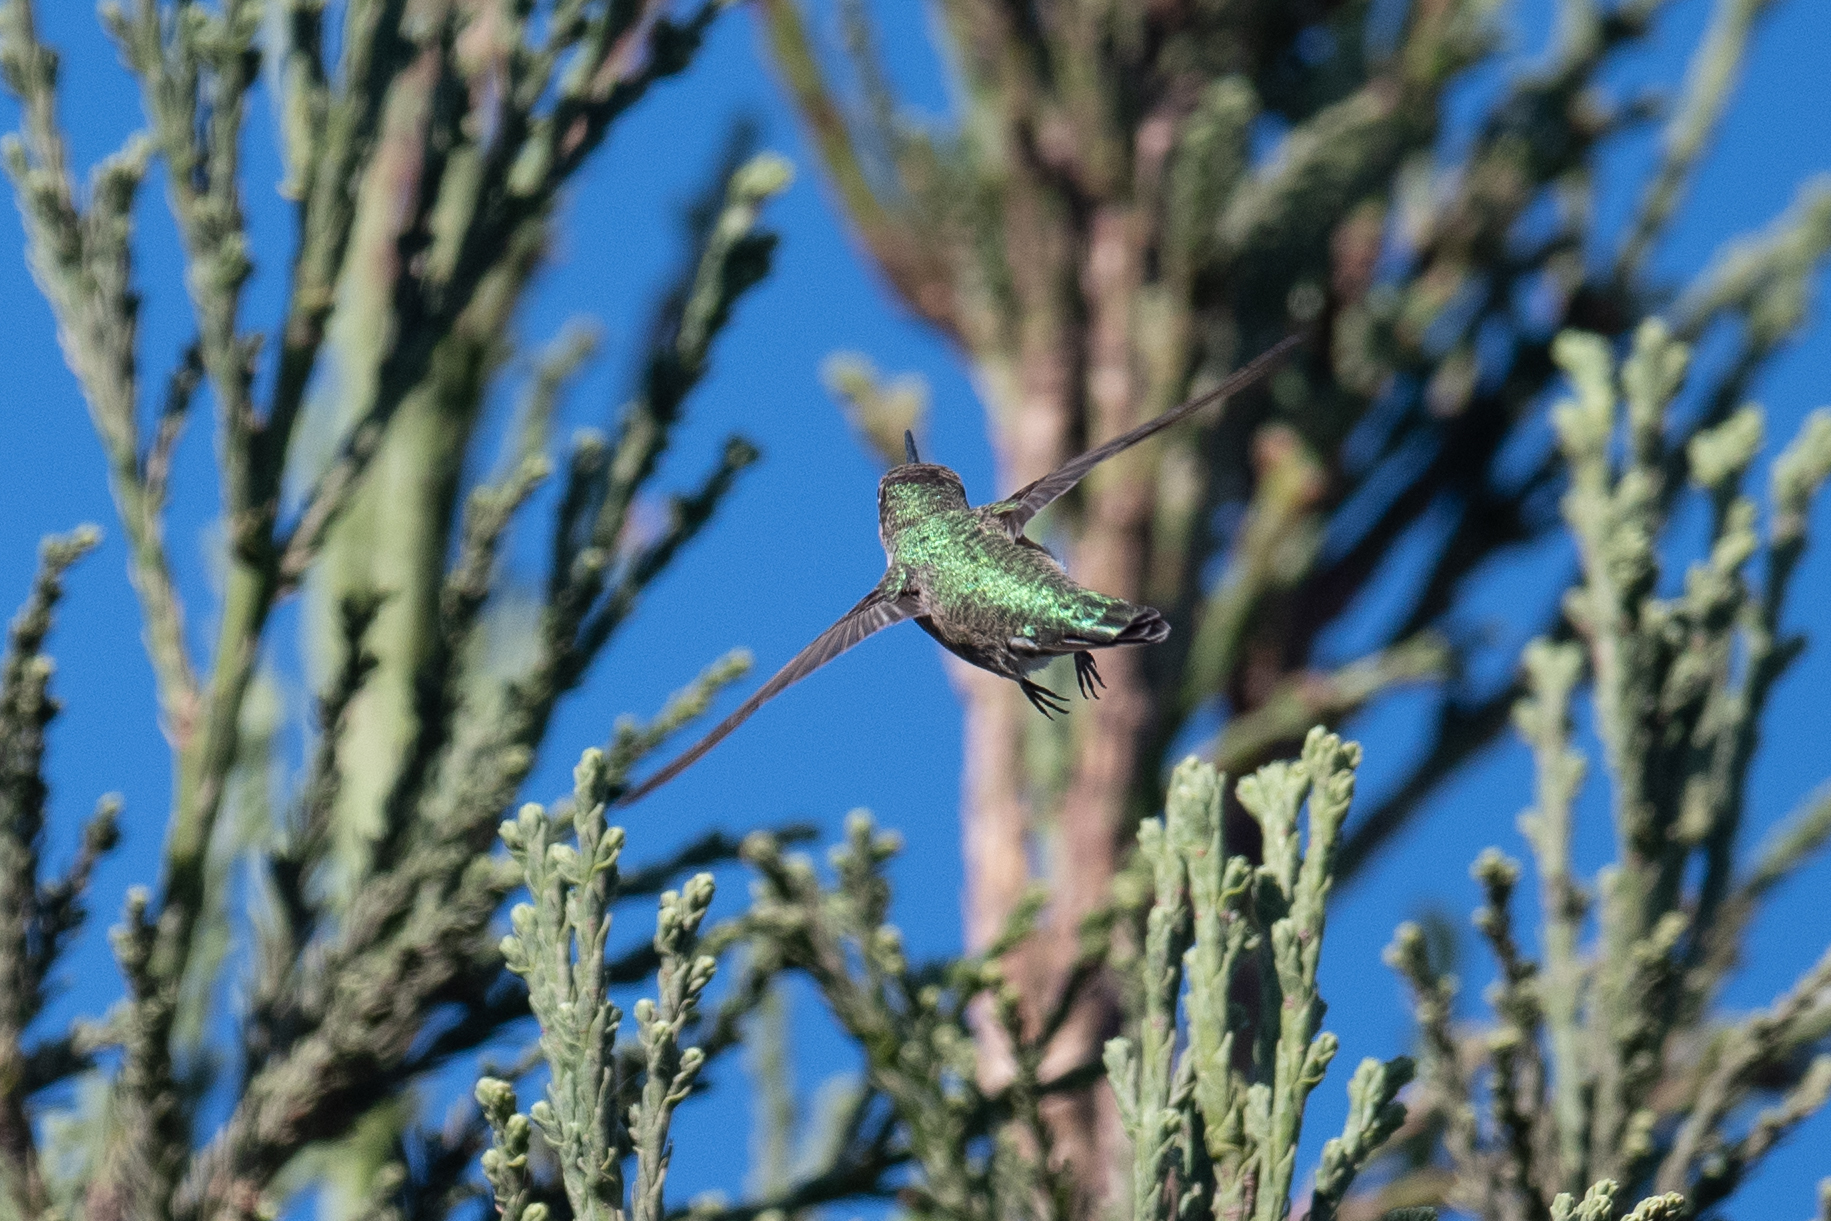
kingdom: Animalia
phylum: Chordata
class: Aves
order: Apodiformes
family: Trochilidae
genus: Calypte
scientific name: Calypte anna
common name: Anna's hummingbird
